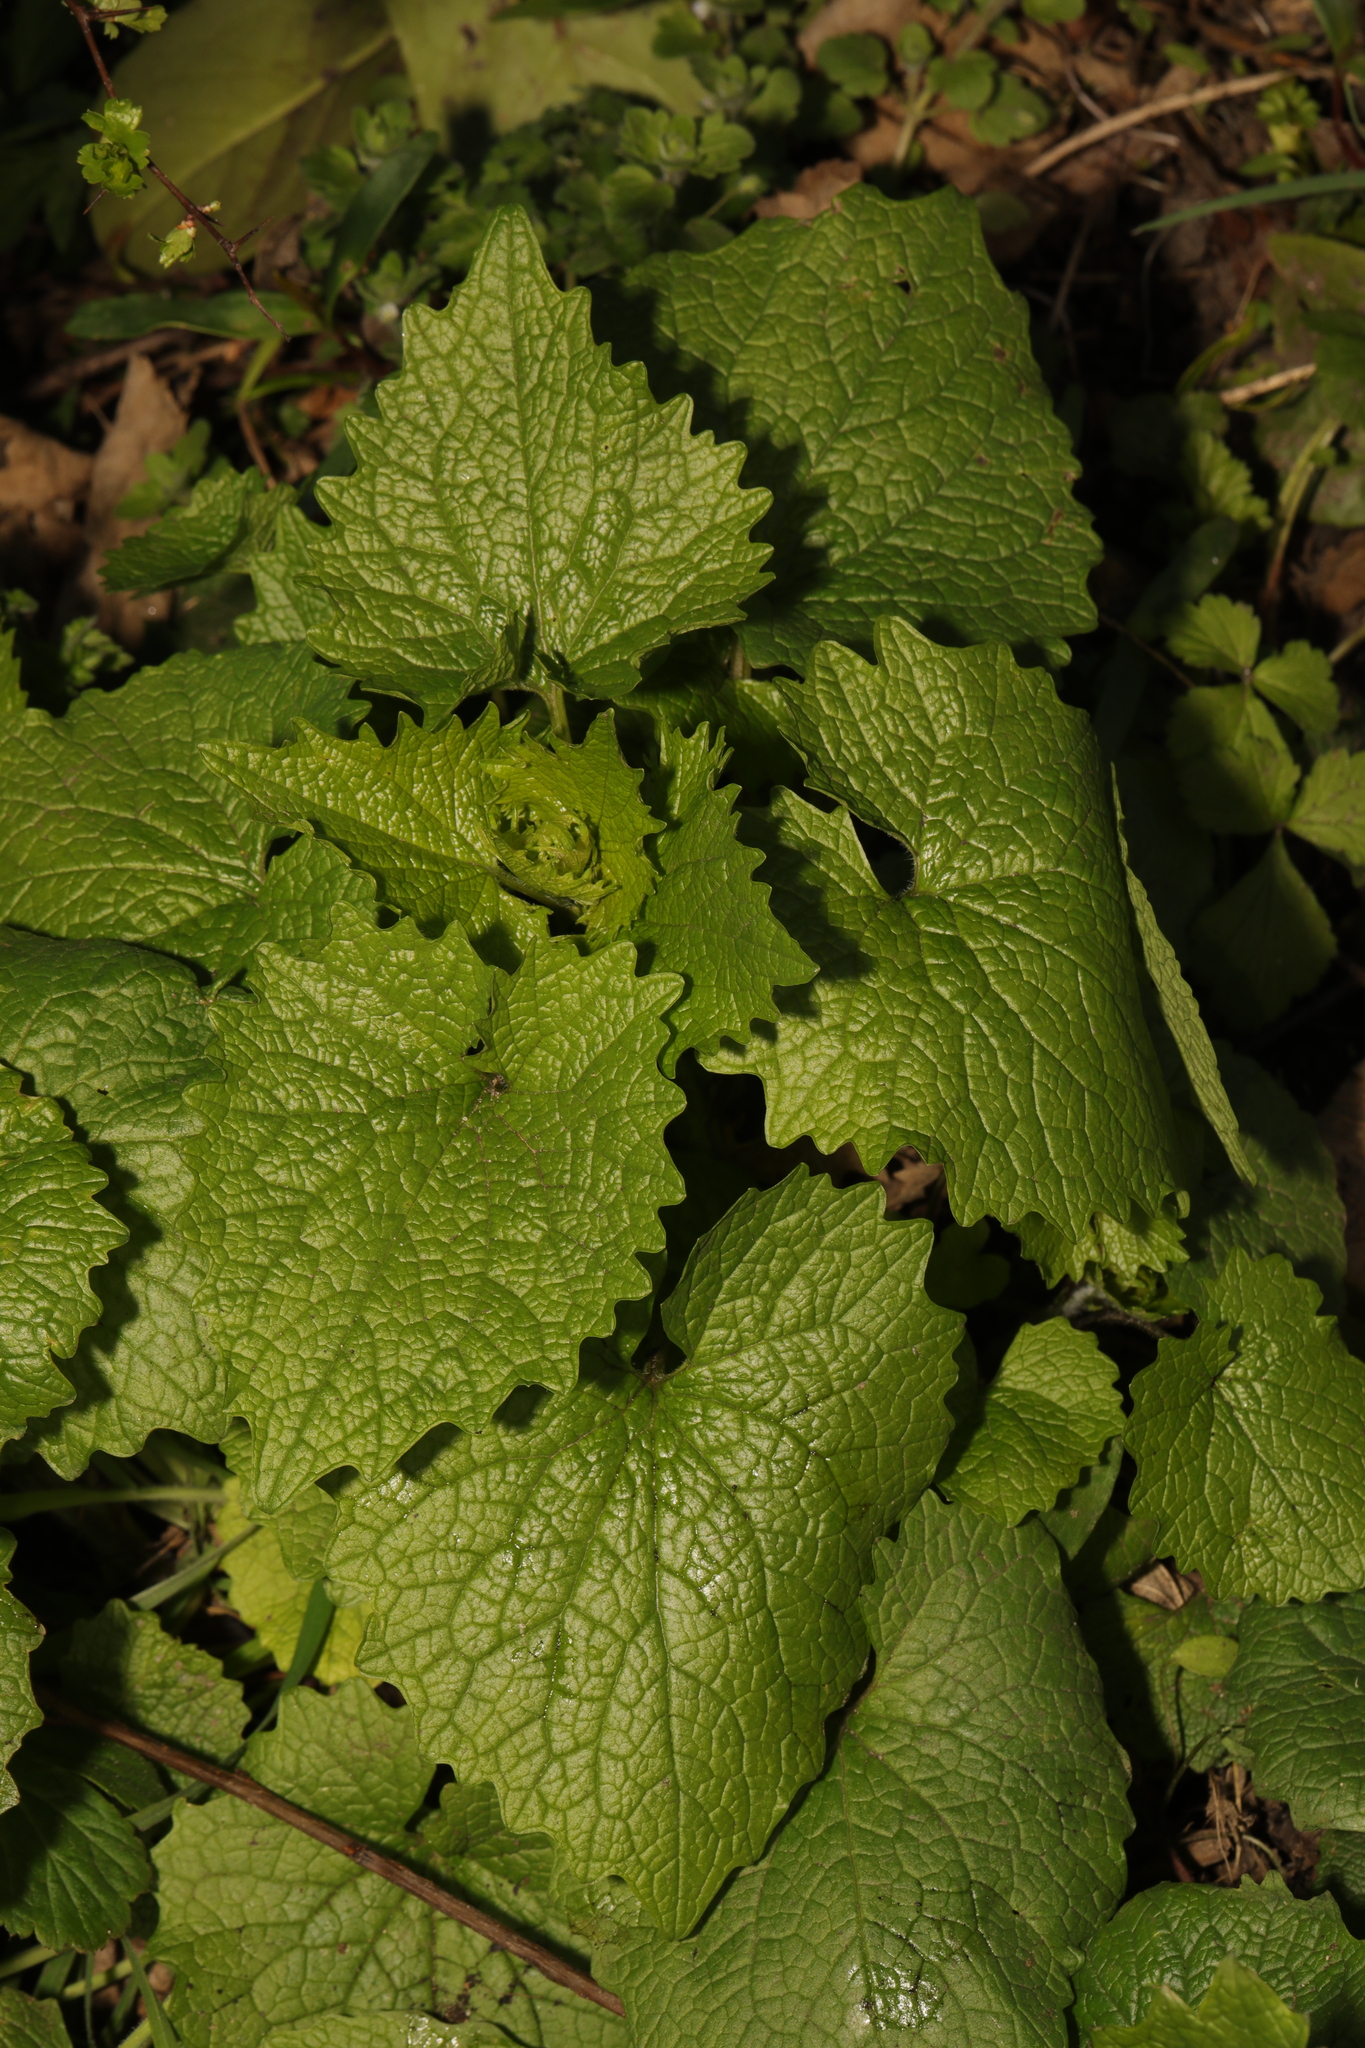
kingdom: Plantae
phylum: Tracheophyta
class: Magnoliopsida
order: Brassicales
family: Brassicaceae
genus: Alliaria
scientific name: Alliaria petiolata
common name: Garlic mustard
